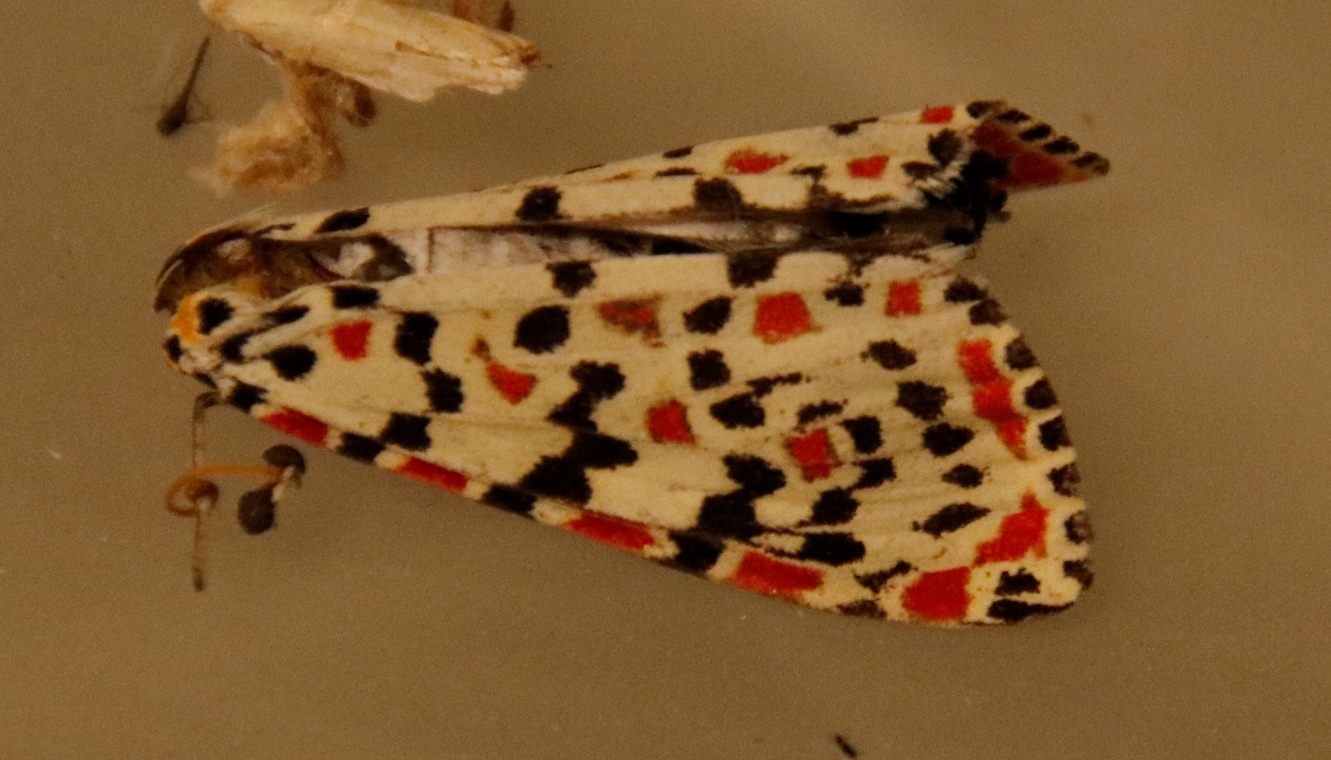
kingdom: Animalia
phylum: Arthropoda
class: Insecta
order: Lepidoptera
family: Erebidae
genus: Utetheisa
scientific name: Utetheisa pulchella
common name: Crimson speckled
